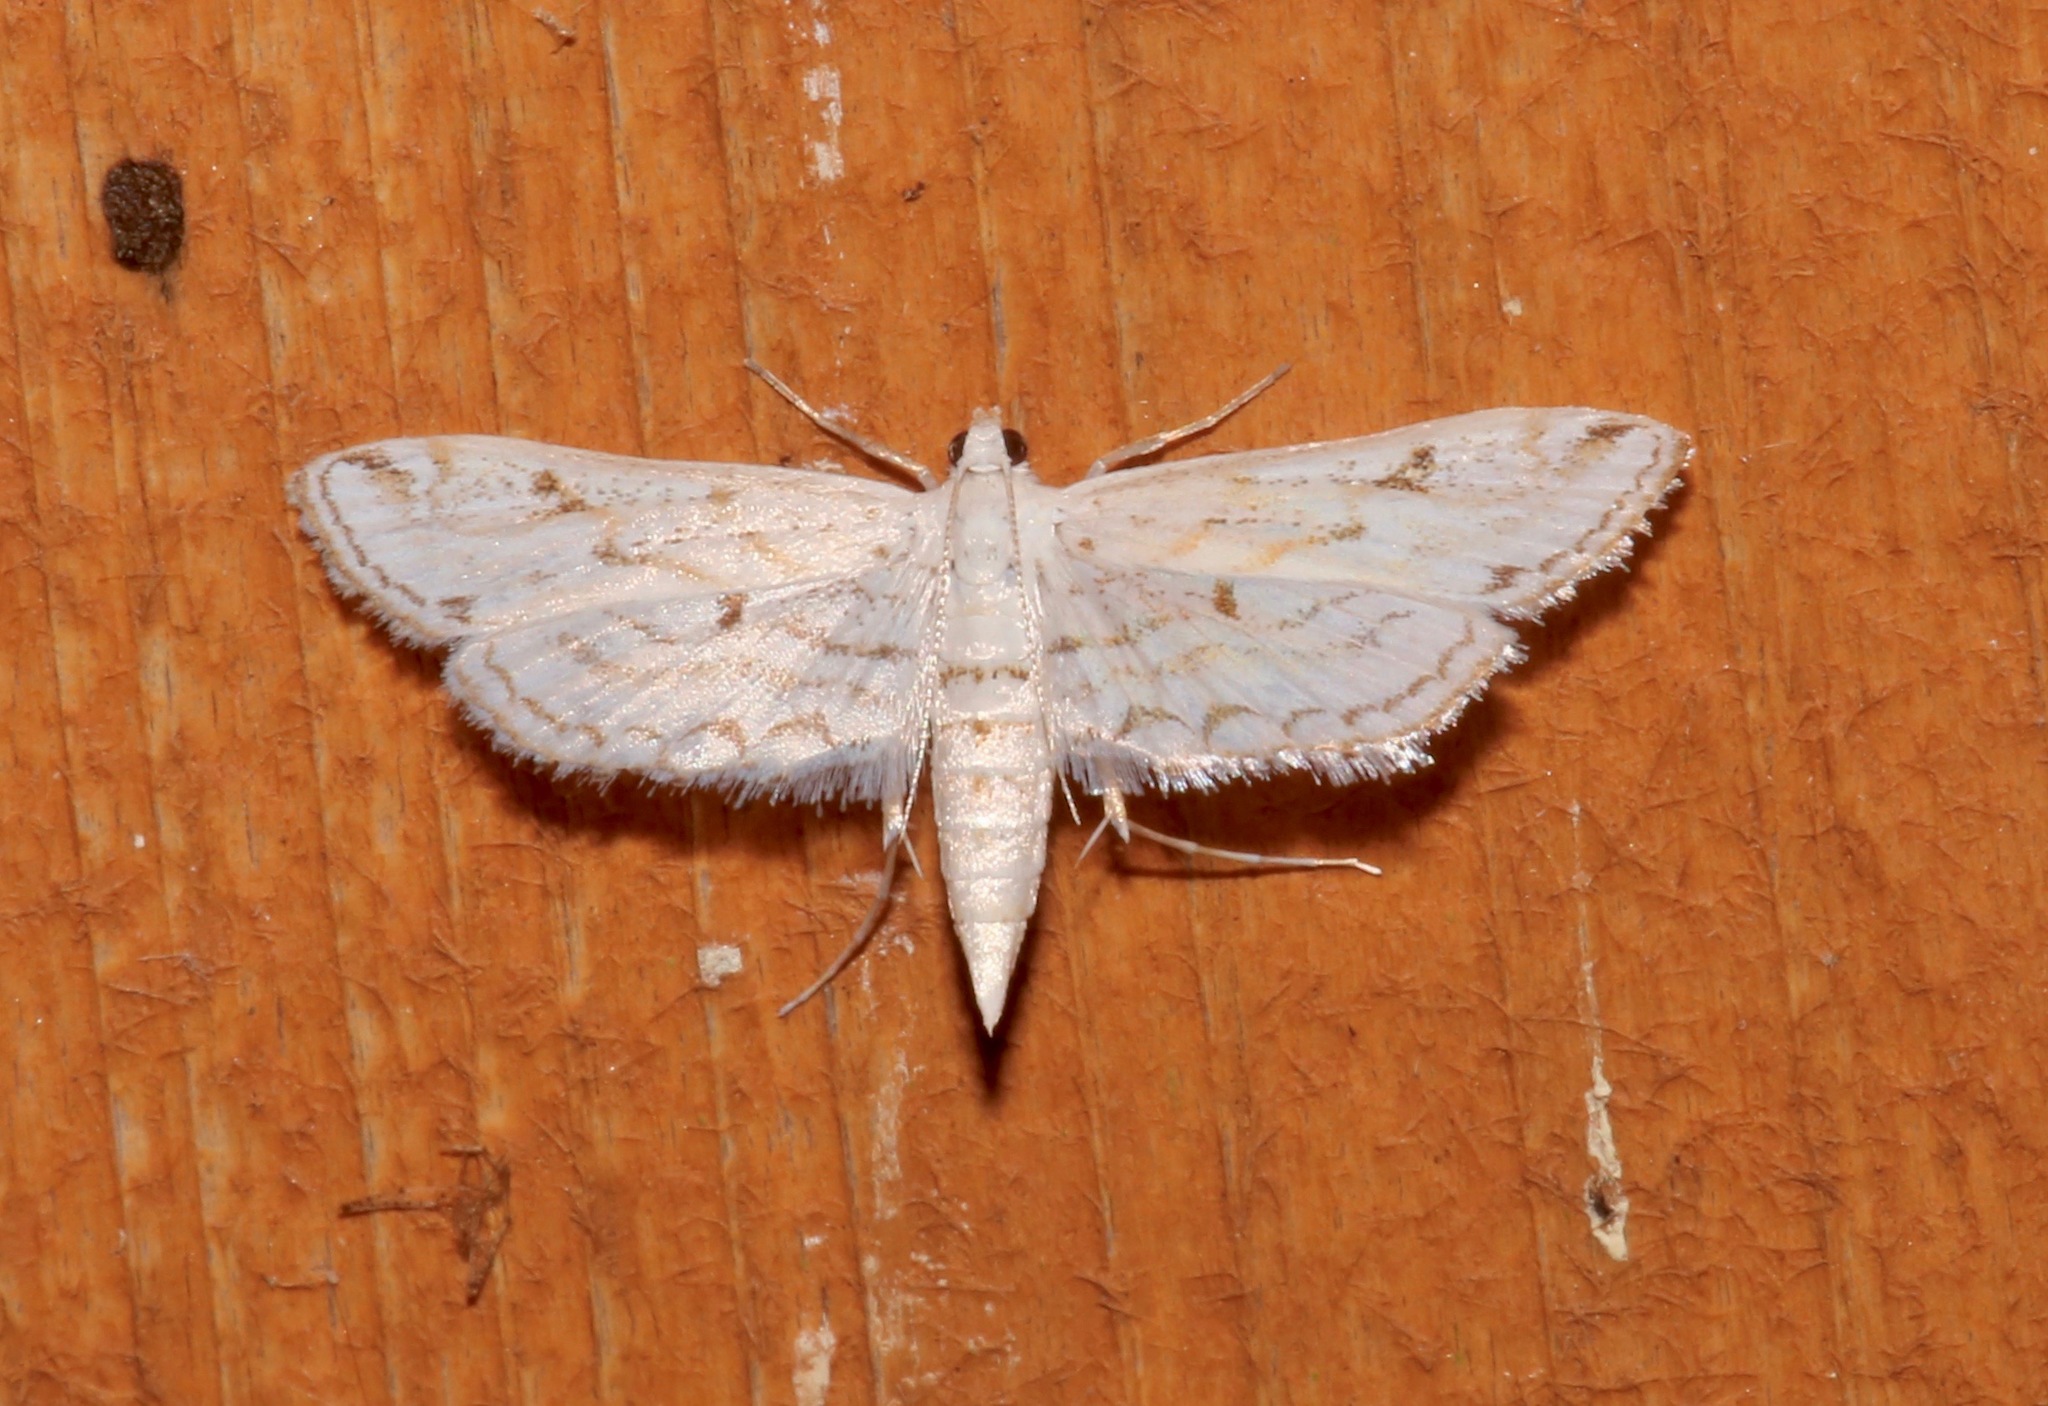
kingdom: Animalia
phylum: Arthropoda
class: Insecta
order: Lepidoptera
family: Crambidae
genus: Parapoynx
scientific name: Parapoynx allionealis
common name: Bladderwort casemaker
